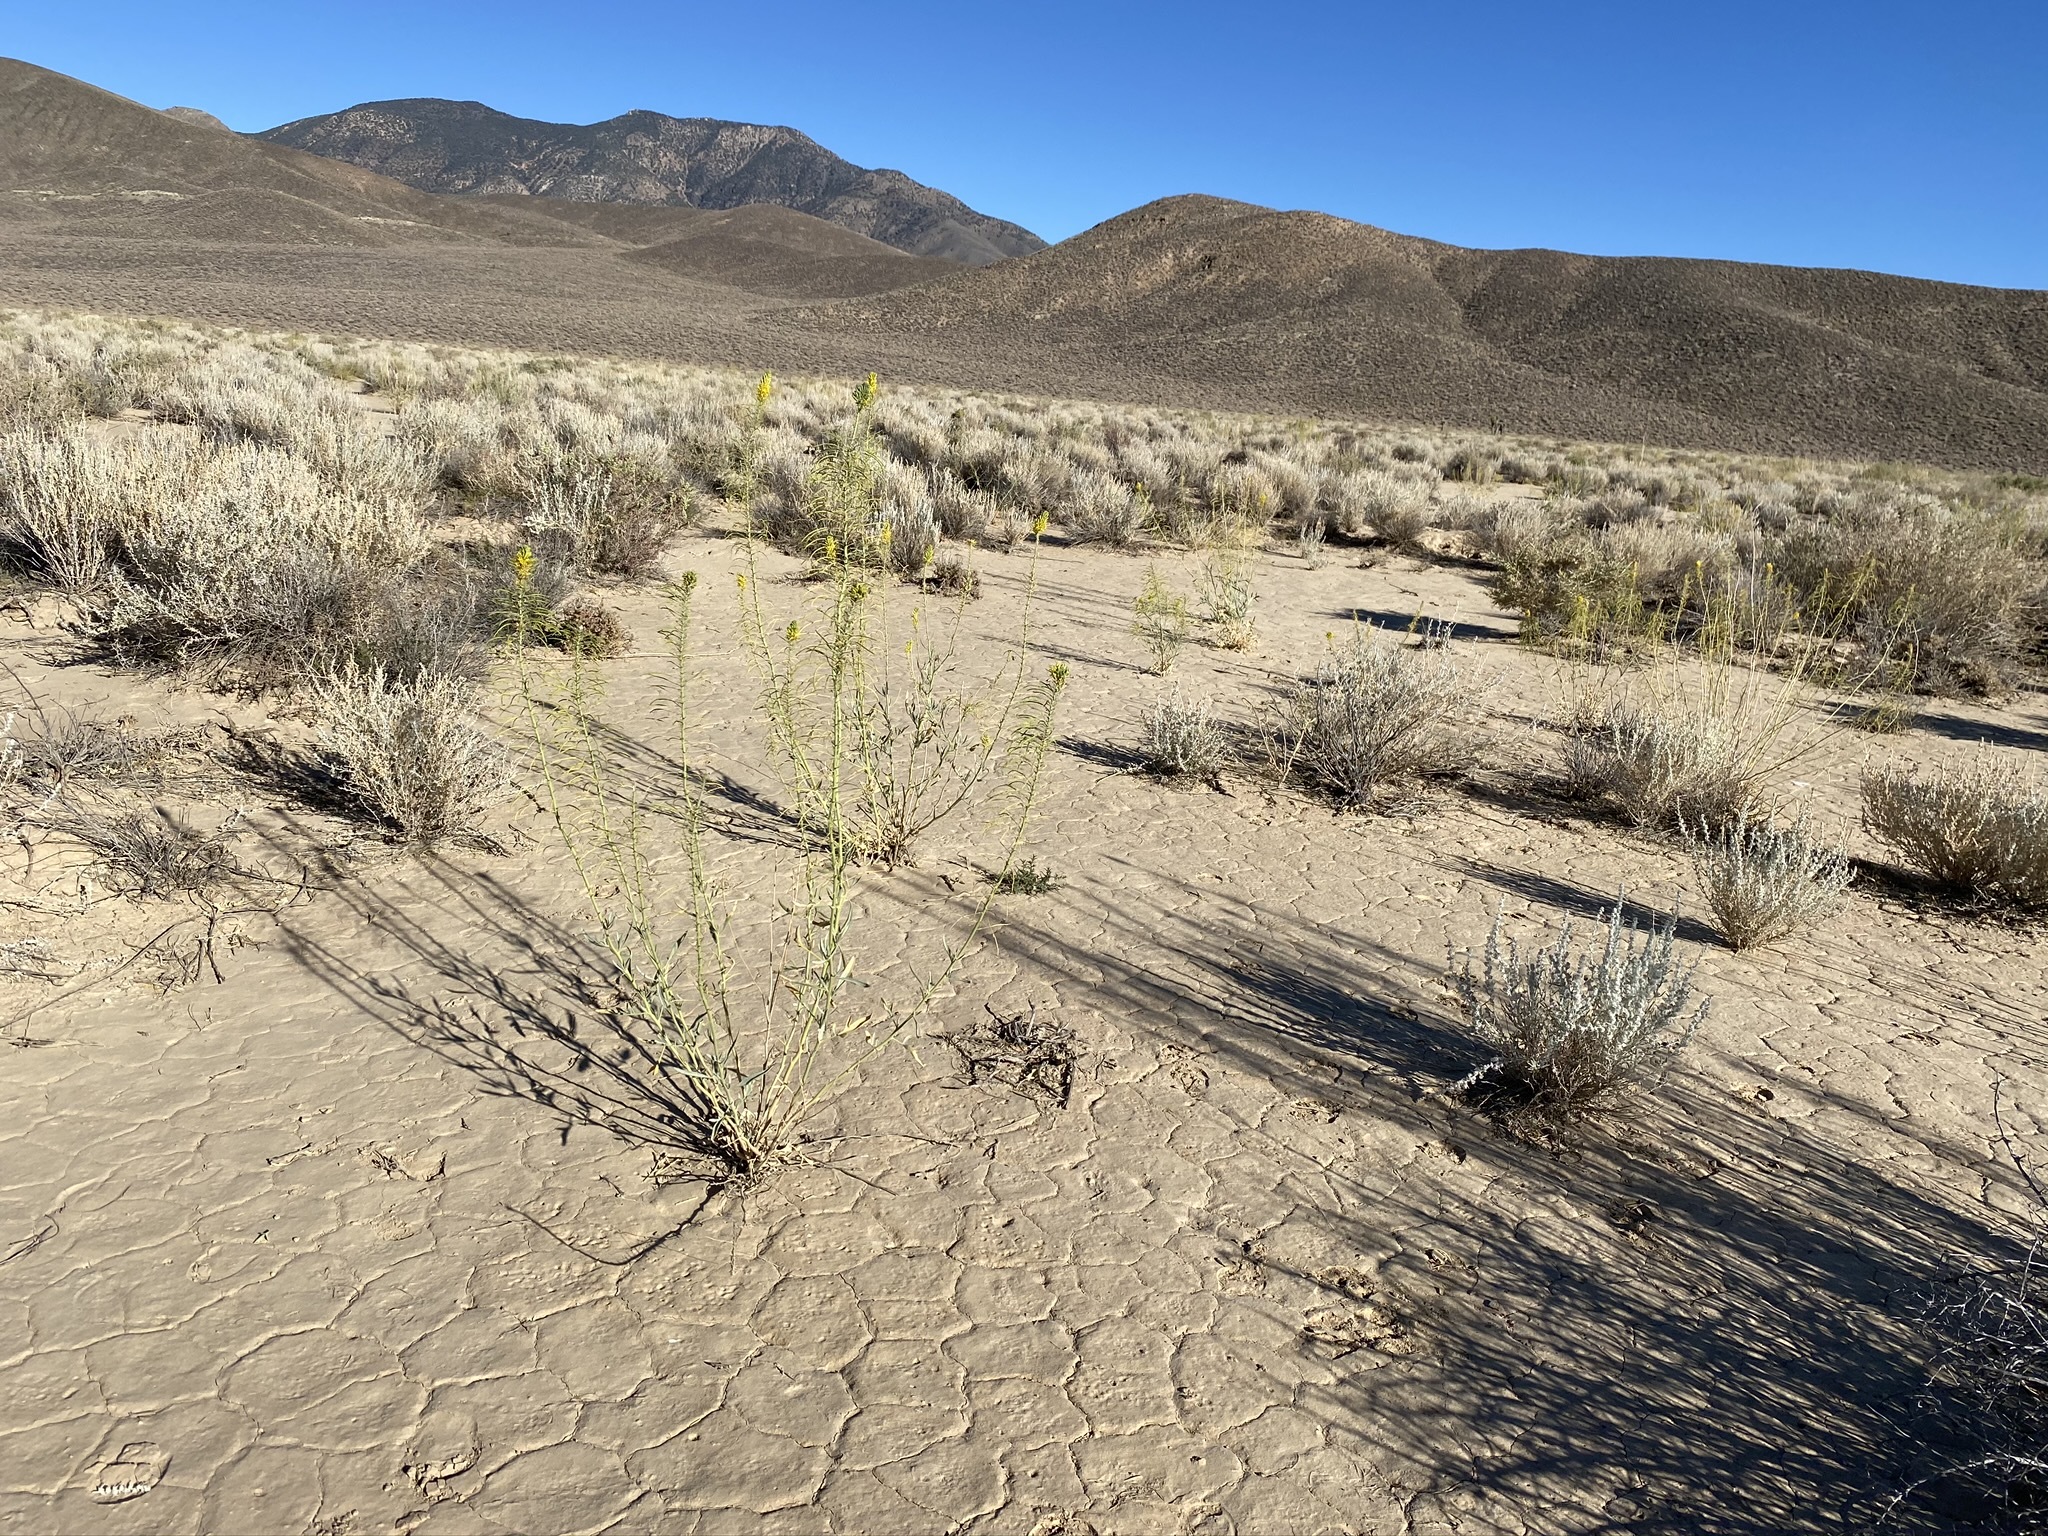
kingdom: Plantae
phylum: Tracheophyta
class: Magnoliopsida
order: Brassicales
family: Brassicaceae
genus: Stanleya
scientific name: Stanleya pinnata
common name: Prince's-plume
